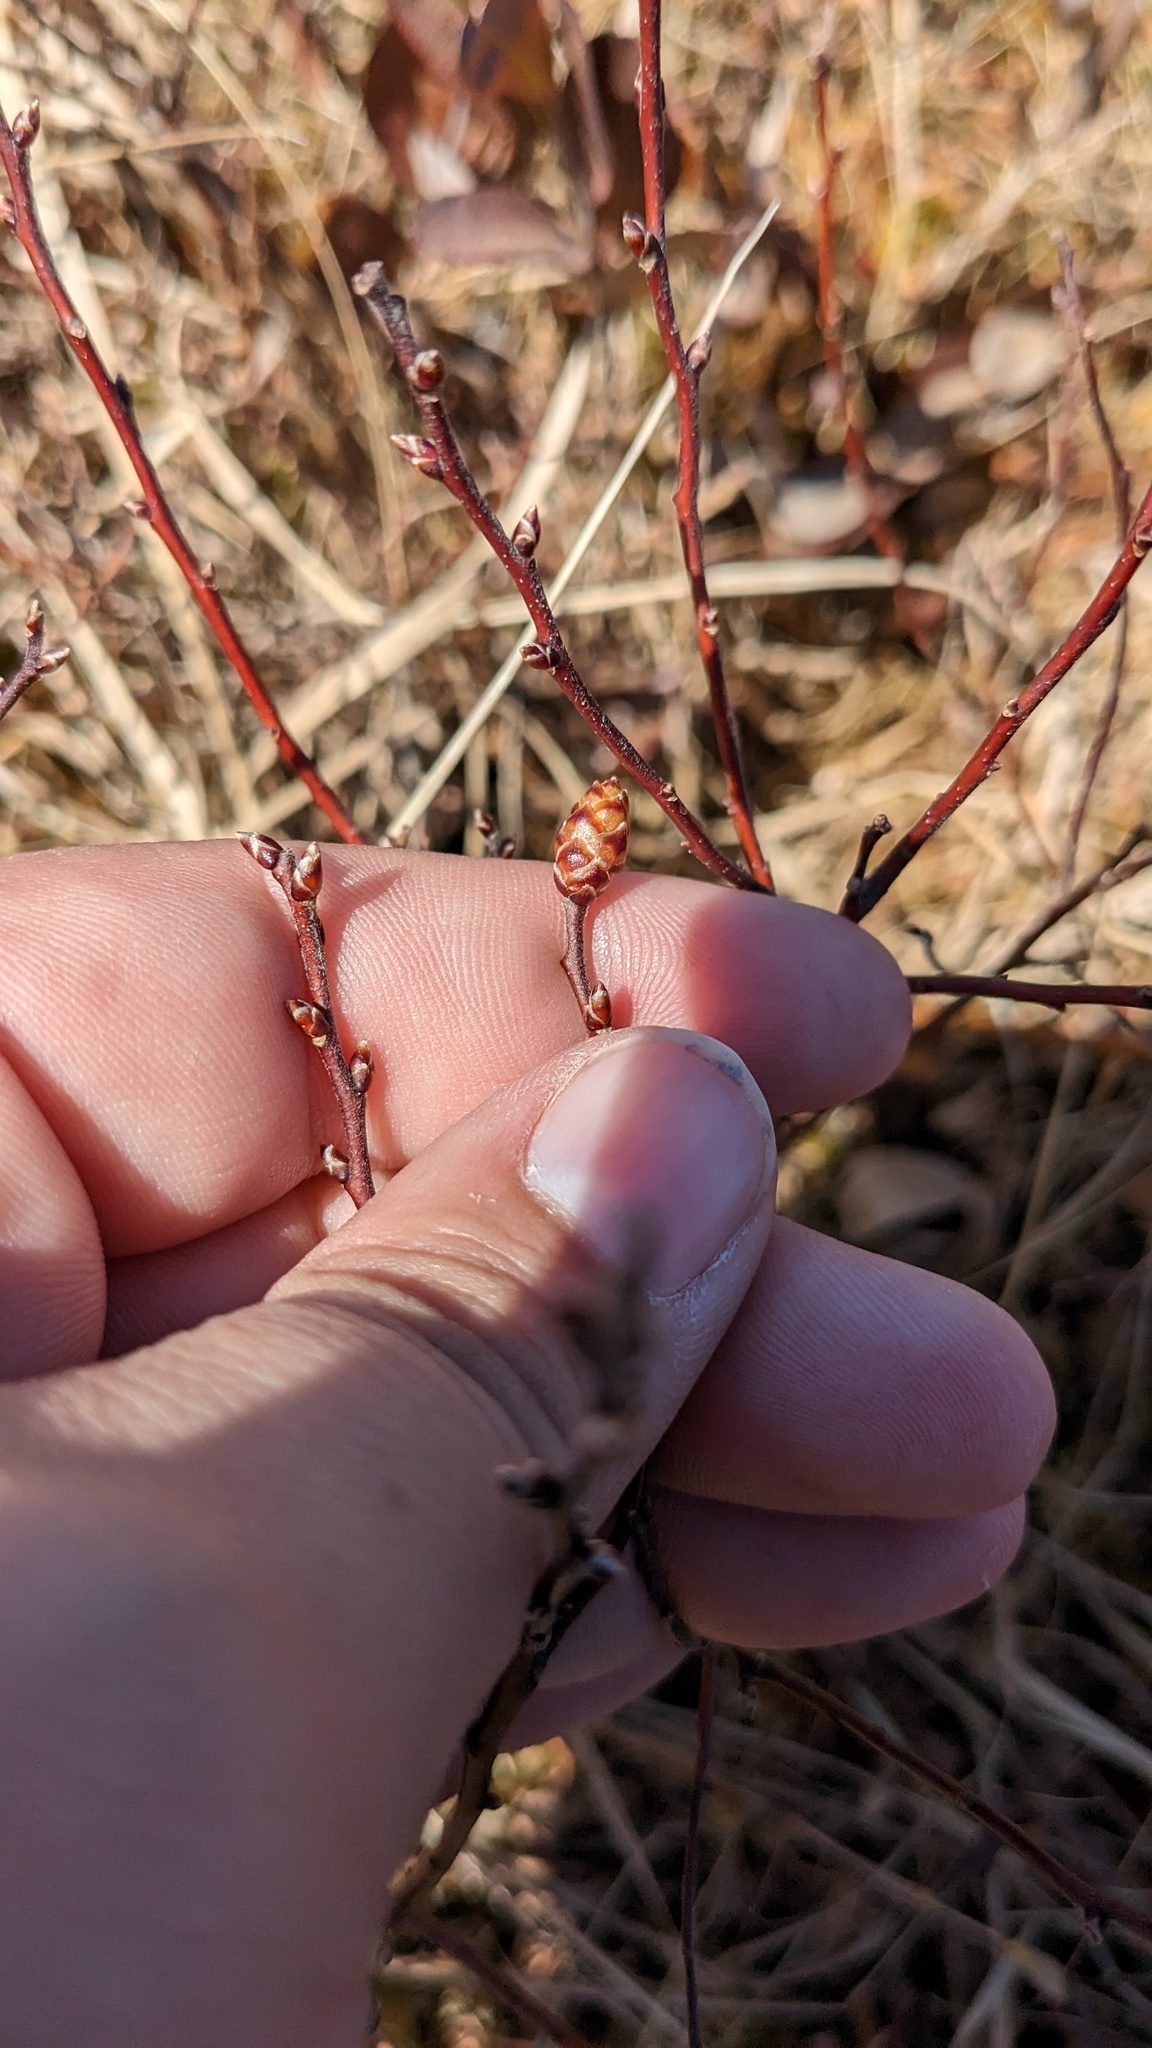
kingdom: Plantae
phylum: Tracheophyta
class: Magnoliopsida
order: Fagales
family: Myricaceae
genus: Myrica
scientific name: Myrica gale
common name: Sweet gale
